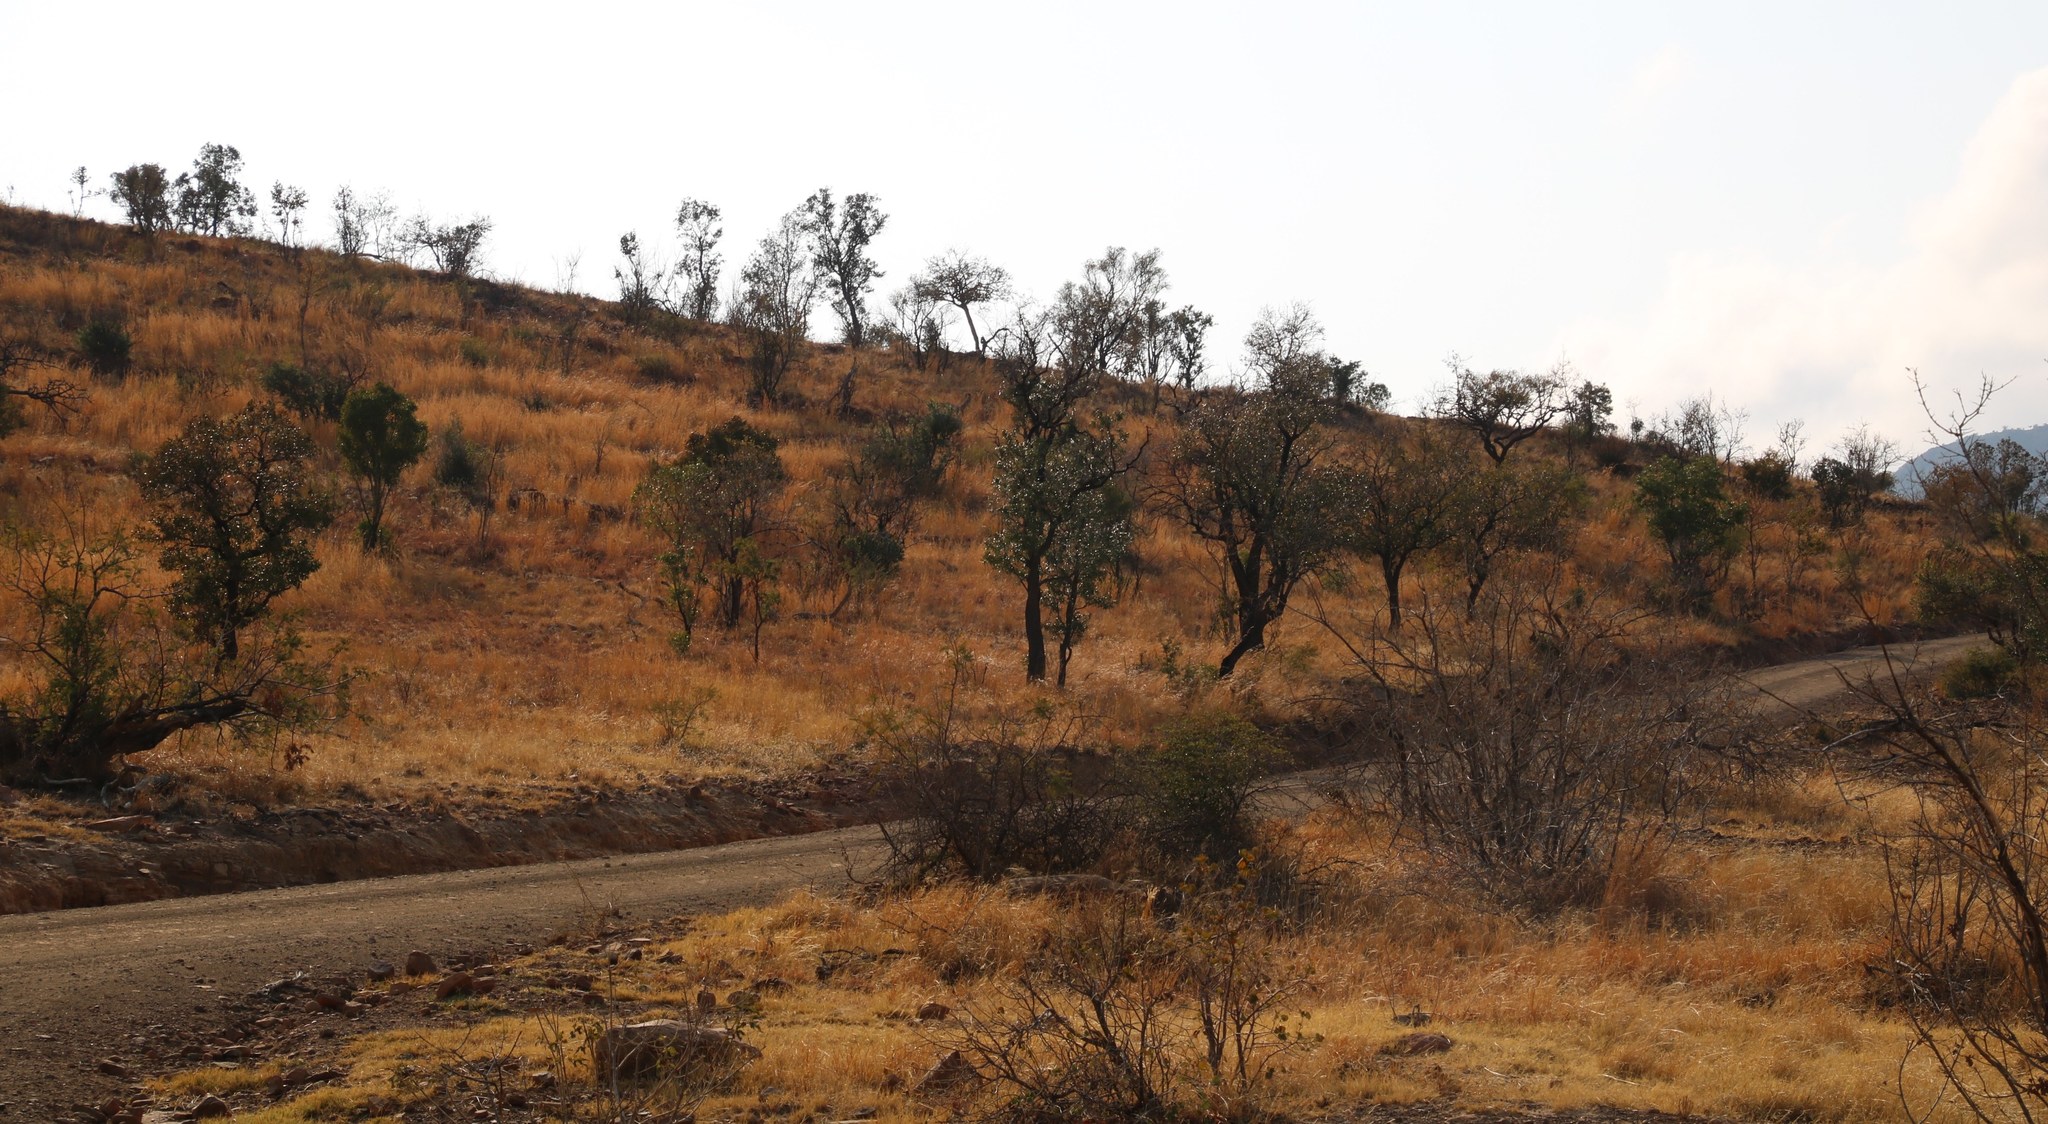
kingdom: Plantae
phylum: Tracheophyta
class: Magnoliopsida
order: Proteales
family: Proteaceae
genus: Faurea
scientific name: Faurea saligna
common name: African bean
